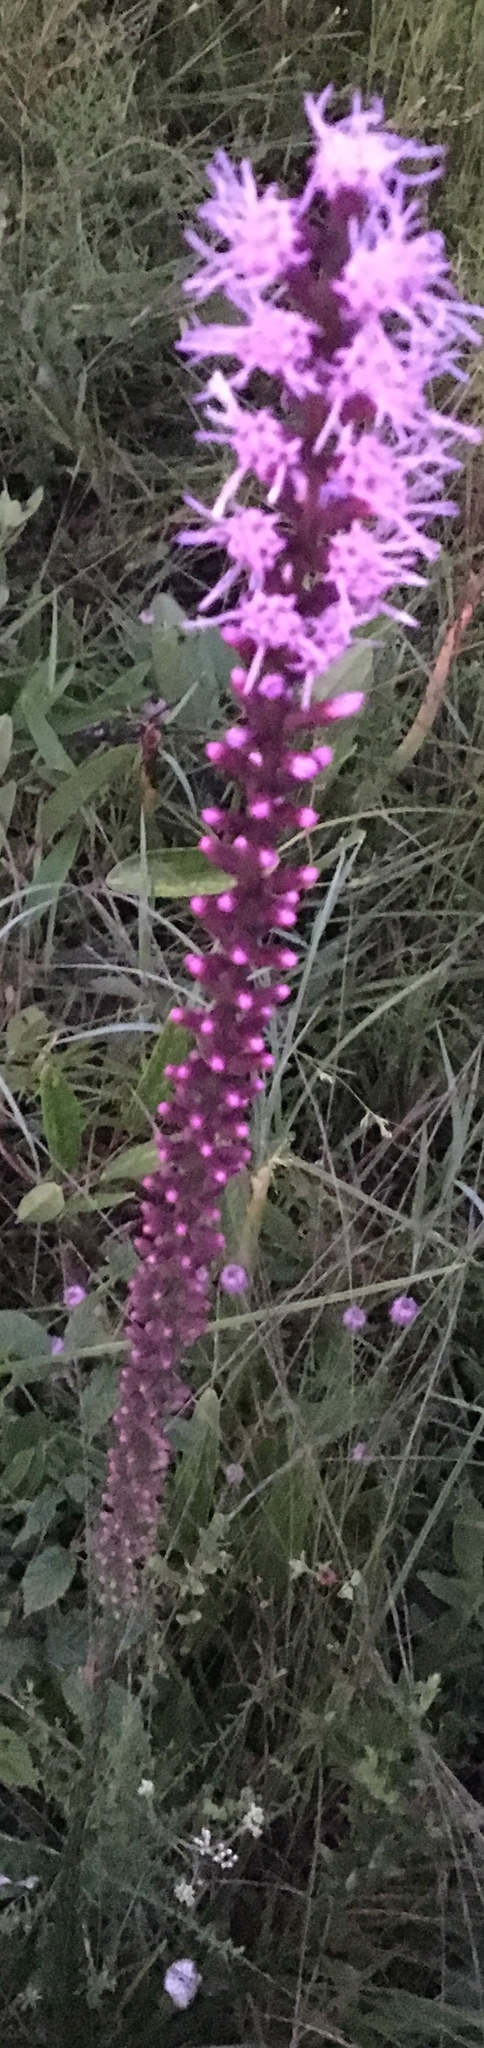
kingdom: Plantae
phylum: Tracheophyta
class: Magnoliopsida
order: Asterales
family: Asteraceae
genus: Liatris
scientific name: Liatris spicata
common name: Florist gayfeather
